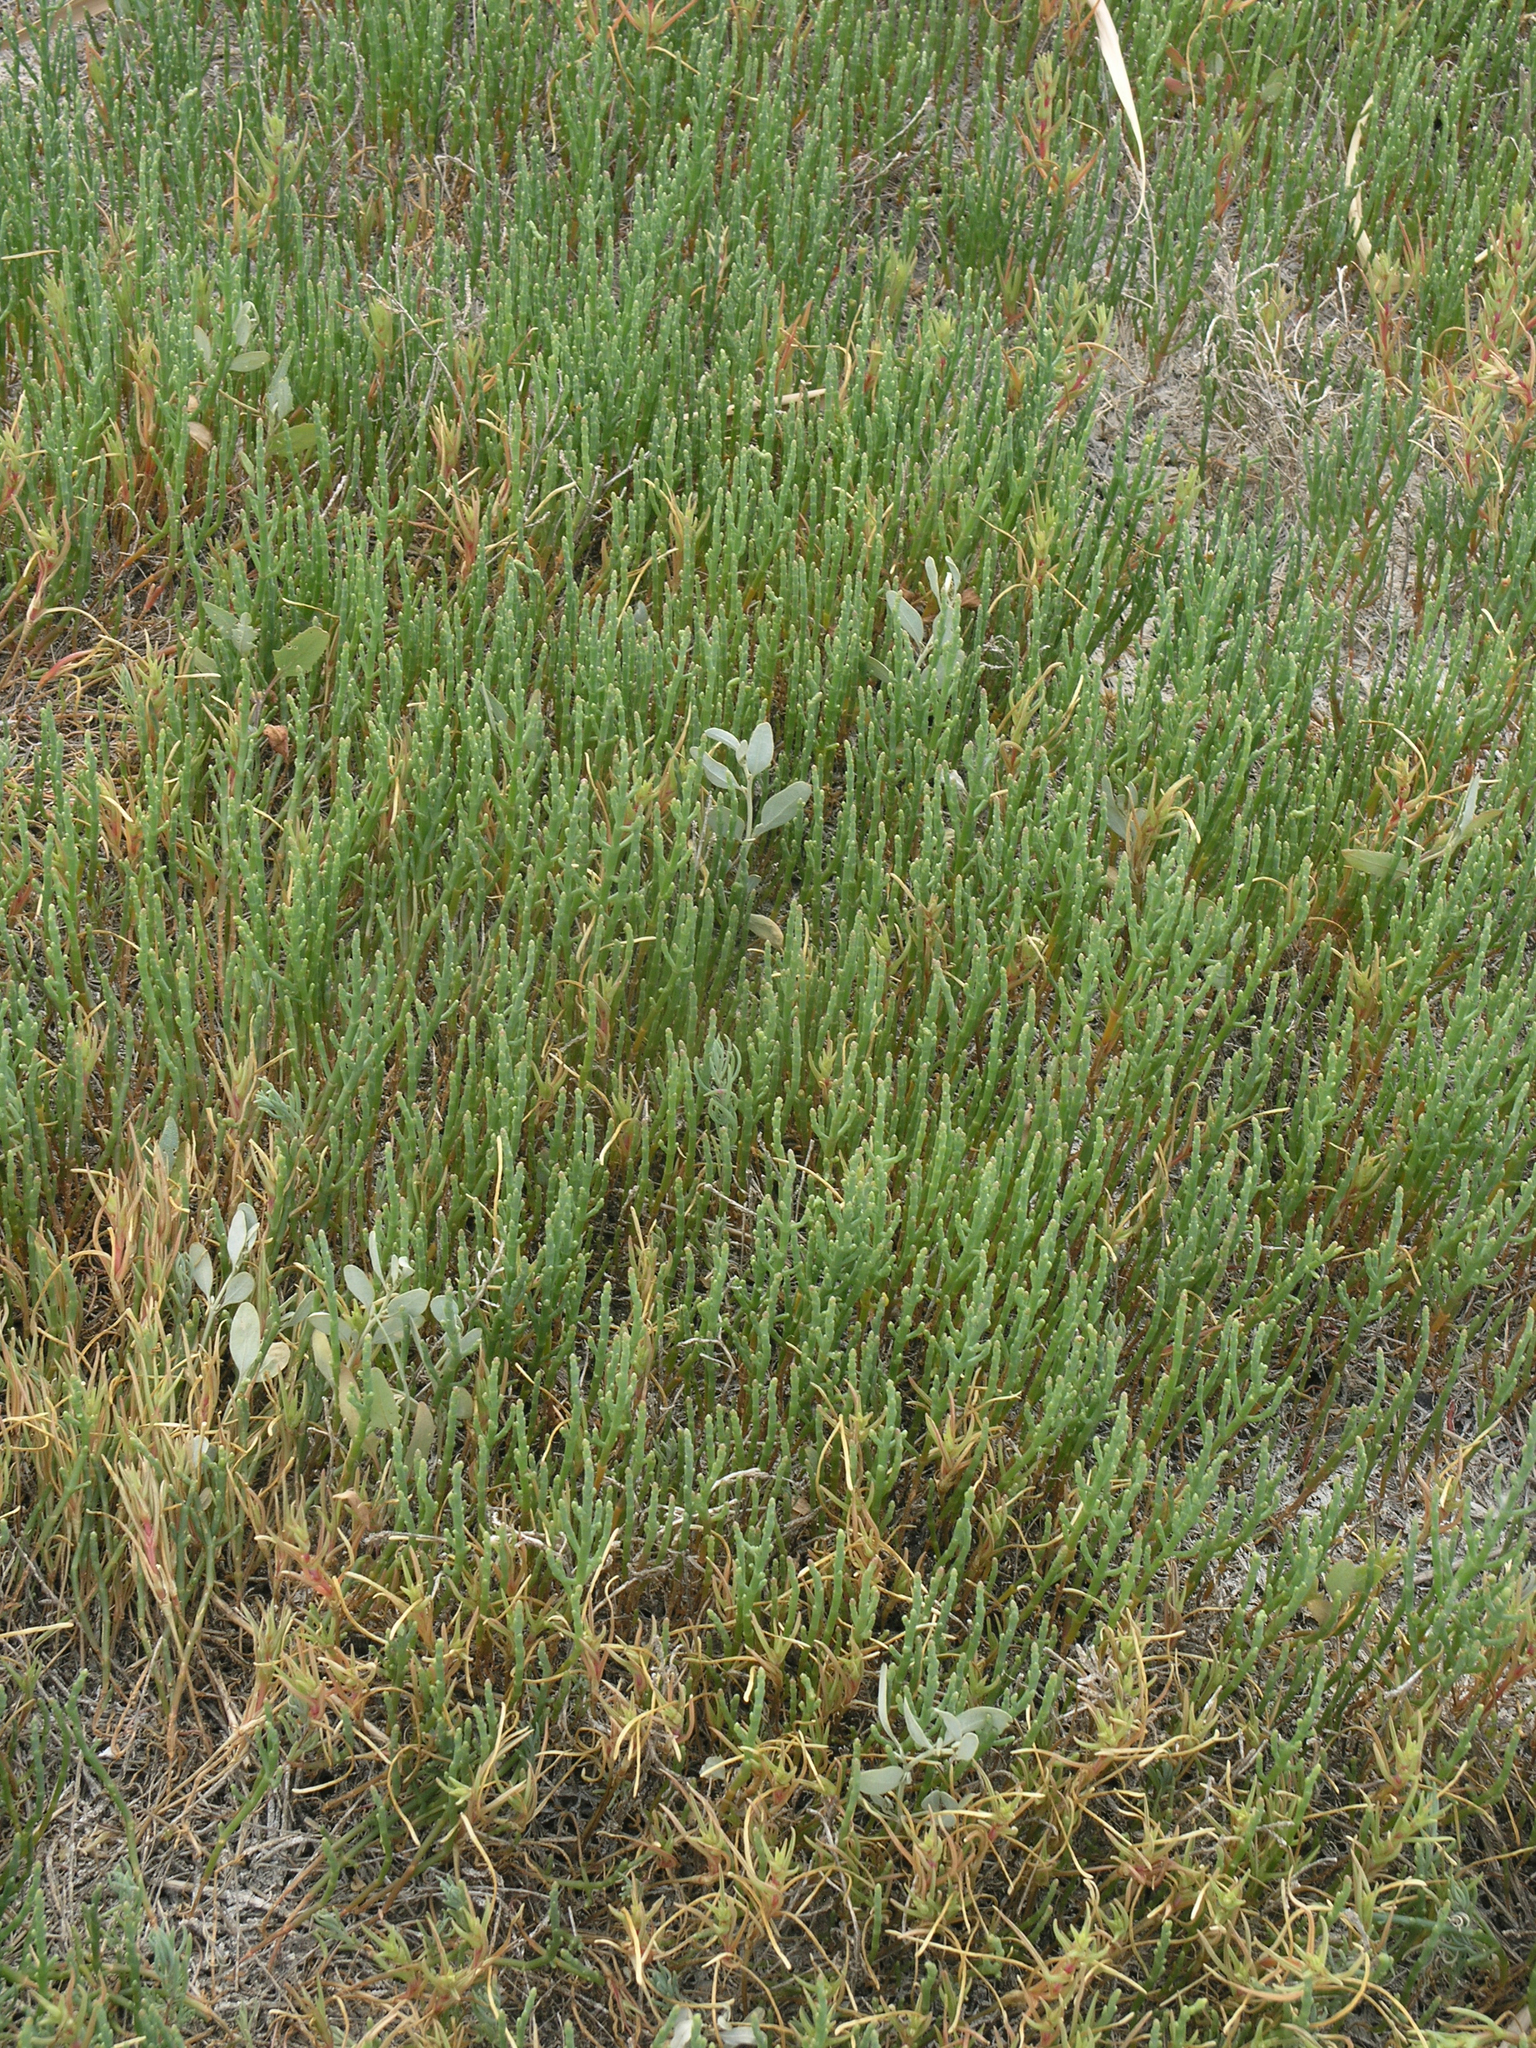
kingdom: Plantae
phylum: Tracheophyta
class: Magnoliopsida
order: Caryophyllales
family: Amaranthaceae
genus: Salicornia
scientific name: Salicornia europaea
